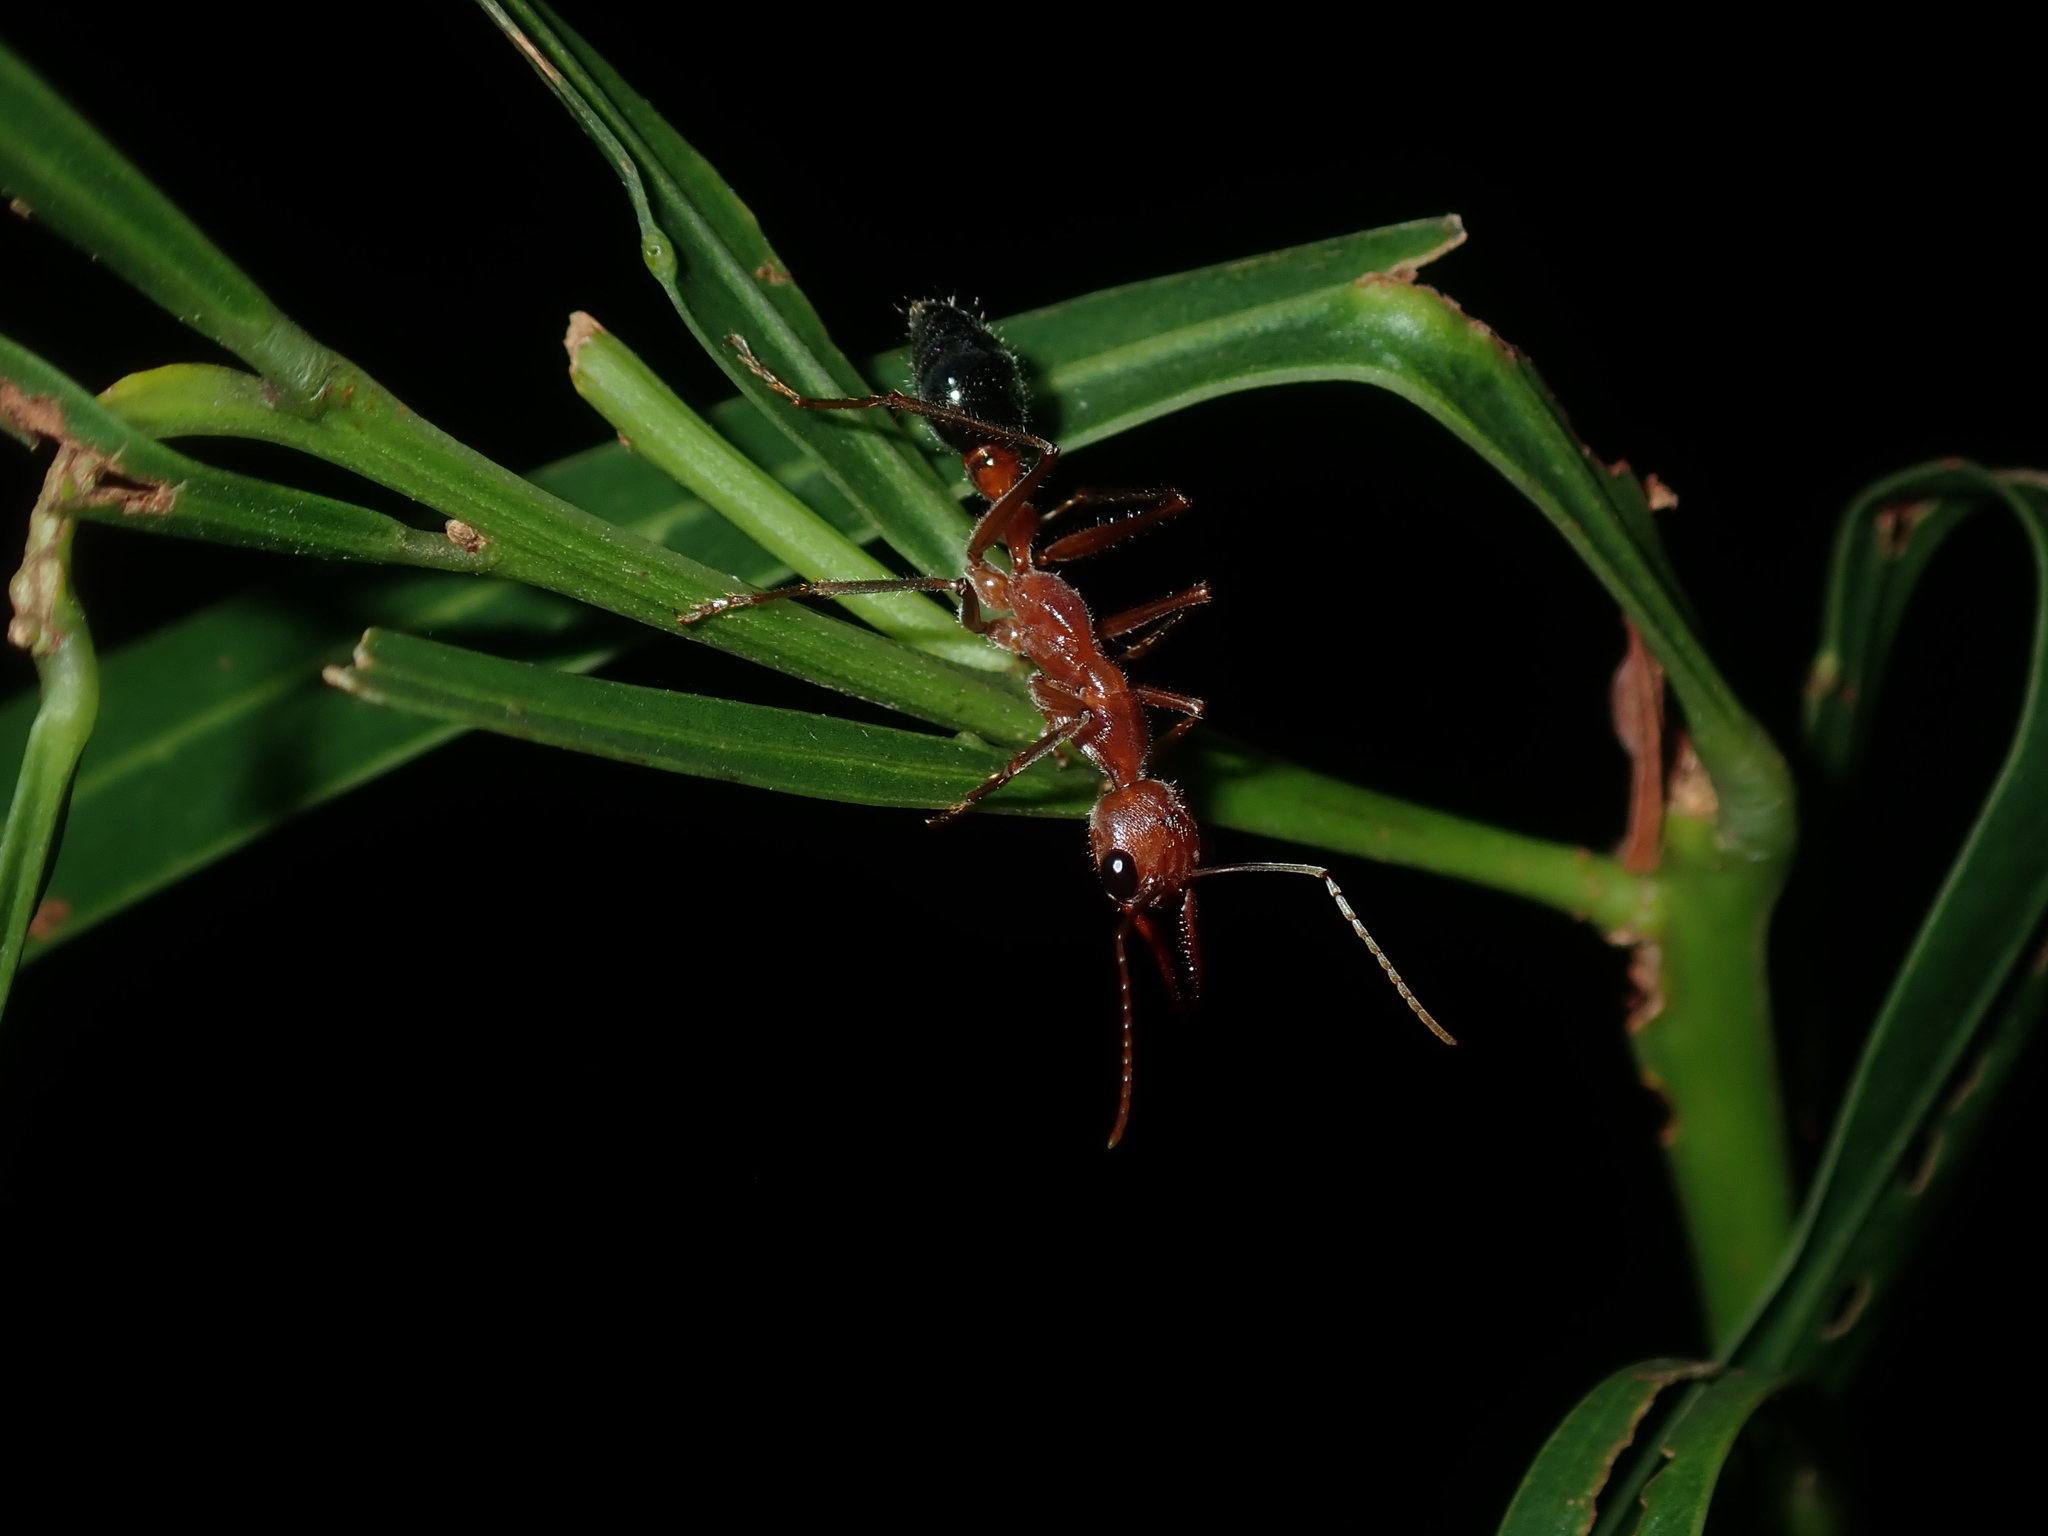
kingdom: Animalia
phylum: Arthropoda
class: Insecta
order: Hymenoptera
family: Formicidae
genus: Myrmecia
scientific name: Myrmecia brevinoda
